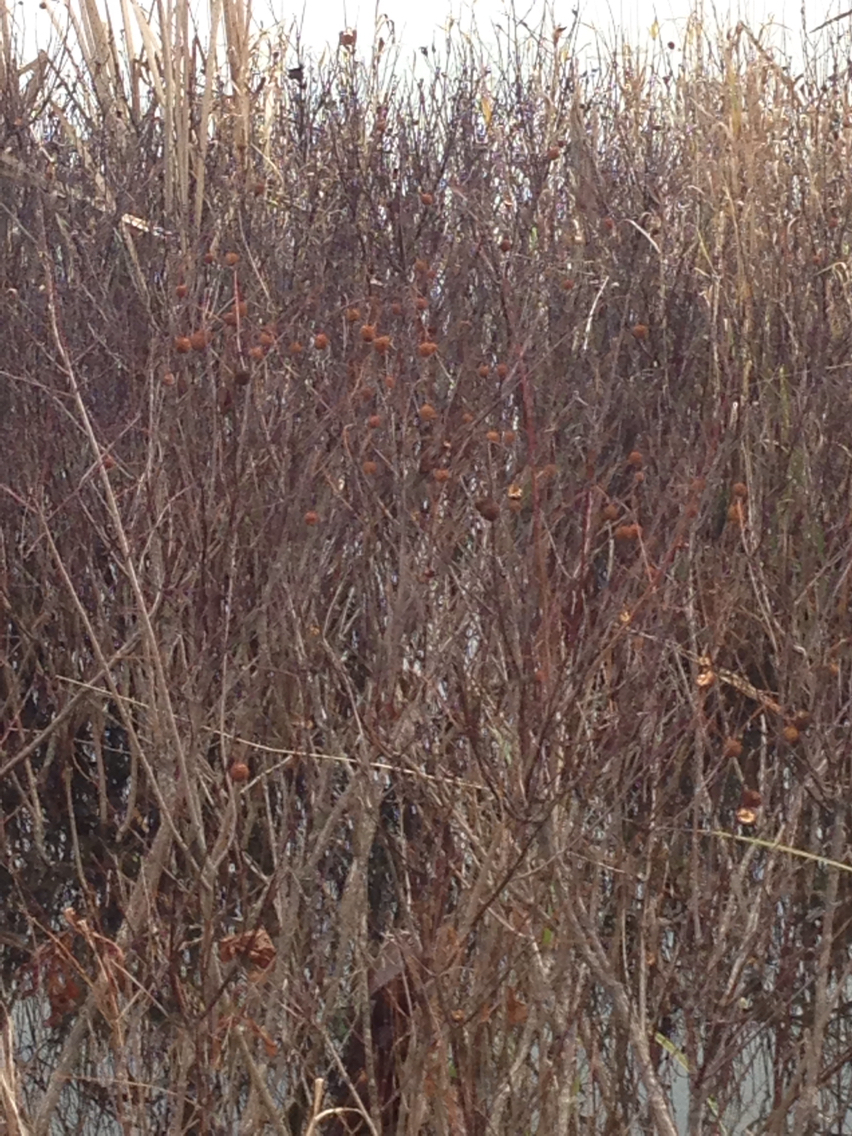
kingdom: Plantae
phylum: Tracheophyta
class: Magnoliopsida
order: Gentianales
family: Rubiaceae
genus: Cephalanthus
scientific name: Cephalanthus occidentalis
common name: Button-willow
